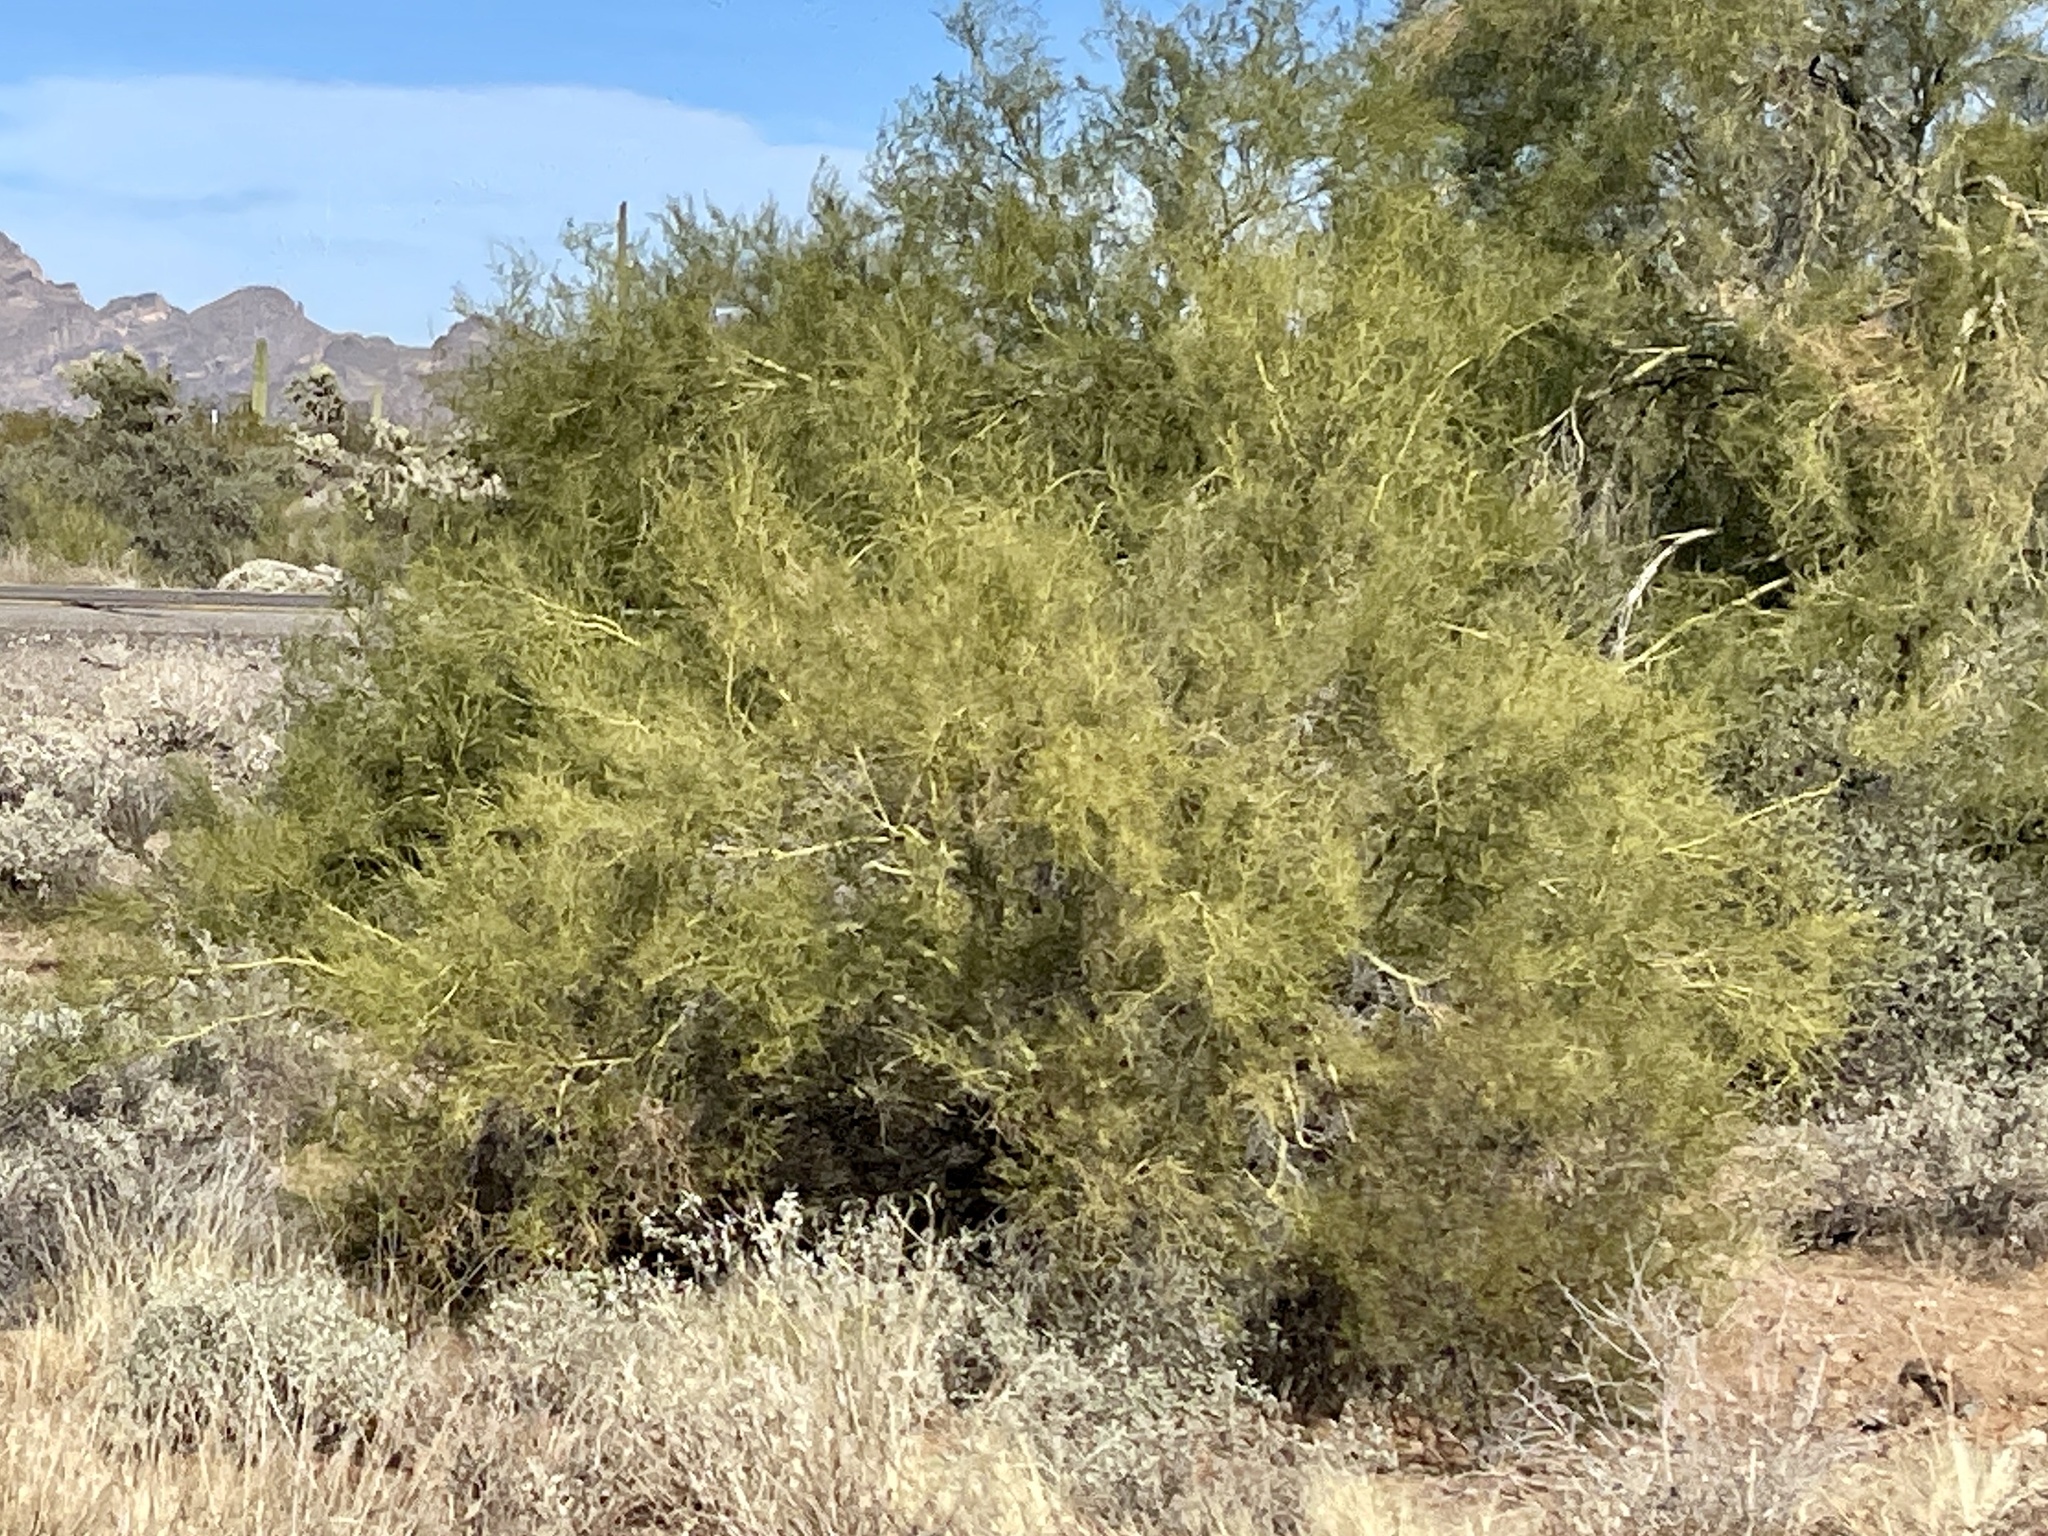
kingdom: Plantae
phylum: Tracheophyta
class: Magnoliopsida
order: Fabales
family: Fabaceae
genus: Parkinsonia
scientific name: Parkinsonia microphylla
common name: Yellow paloverde
